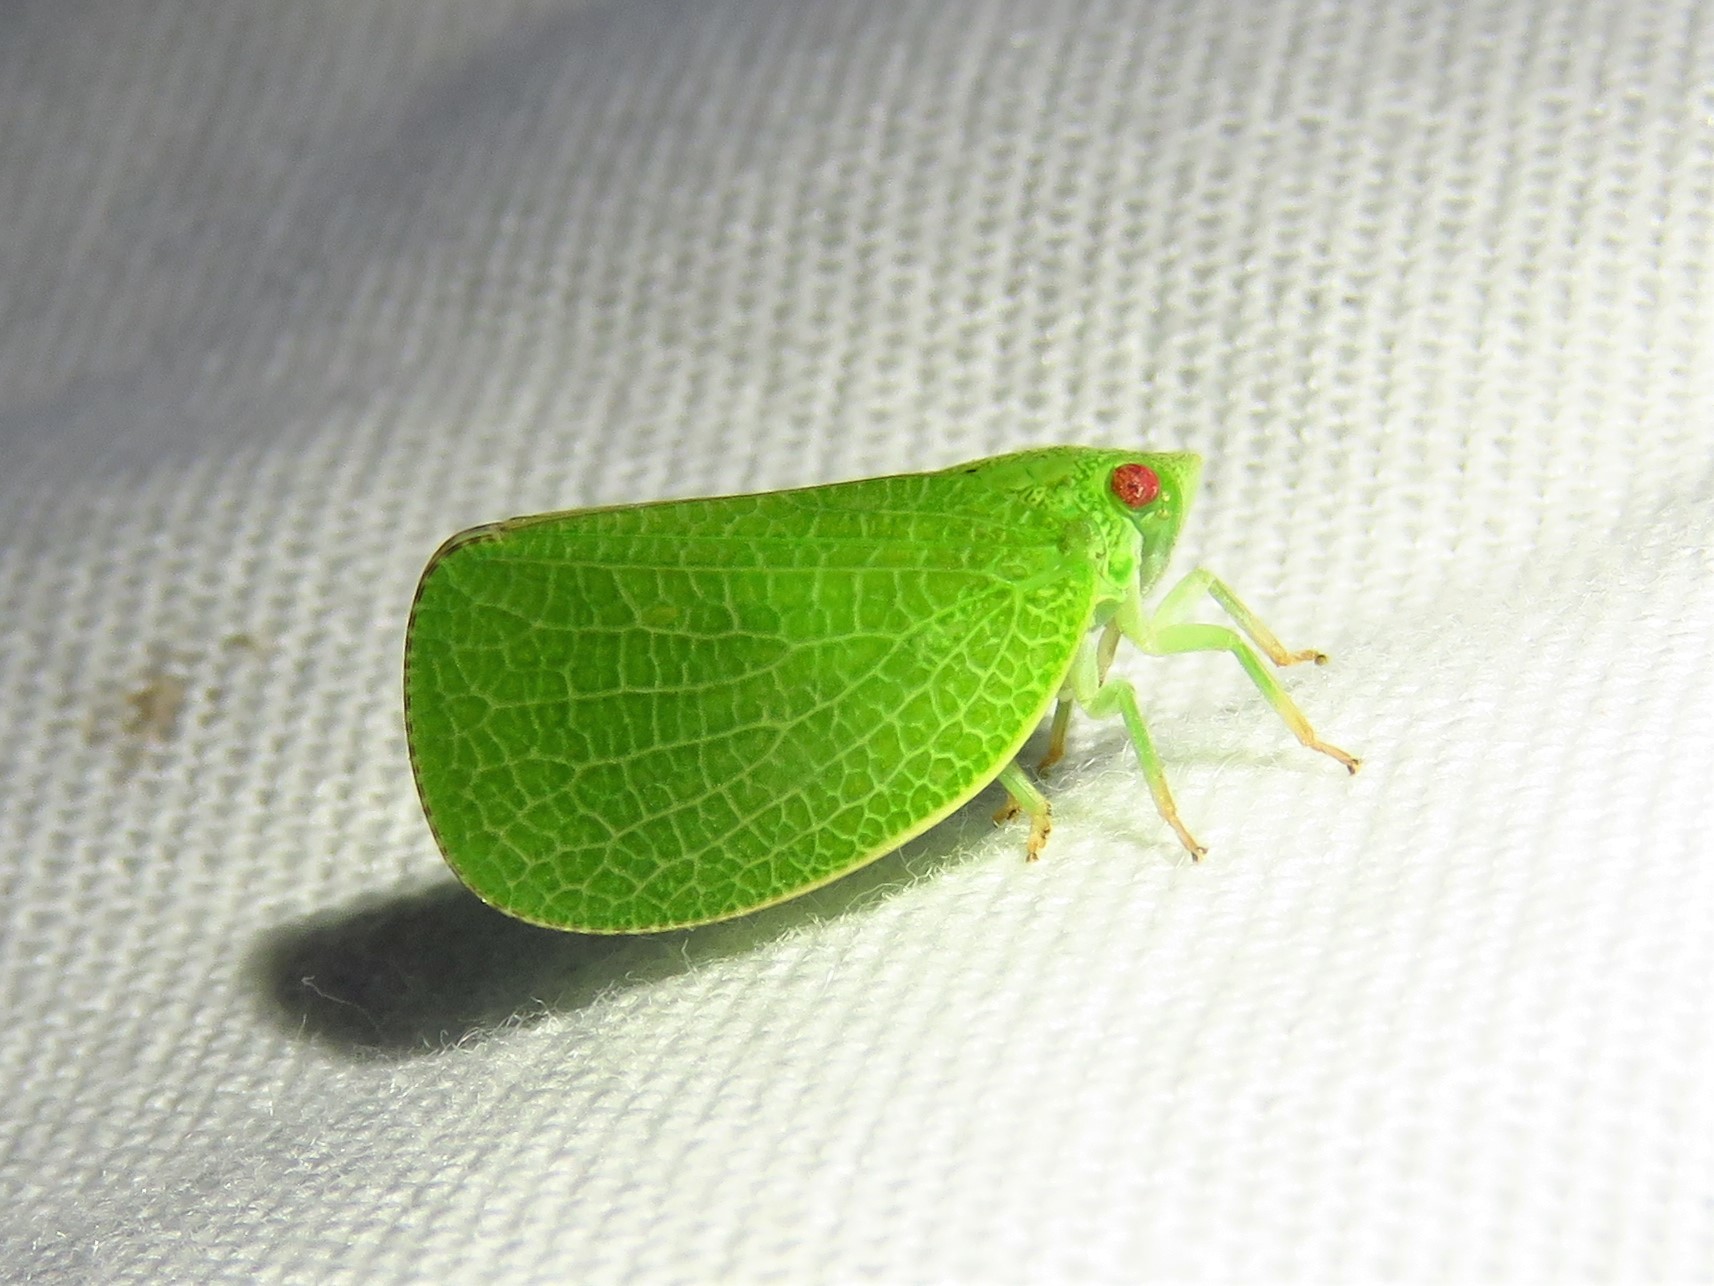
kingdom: Animalia
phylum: Arthropoda
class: Insecta
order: Hemiptera
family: Acanaloniidae
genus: Acanalonia
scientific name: Acanalonia conica
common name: Green cone-headed planthopper
